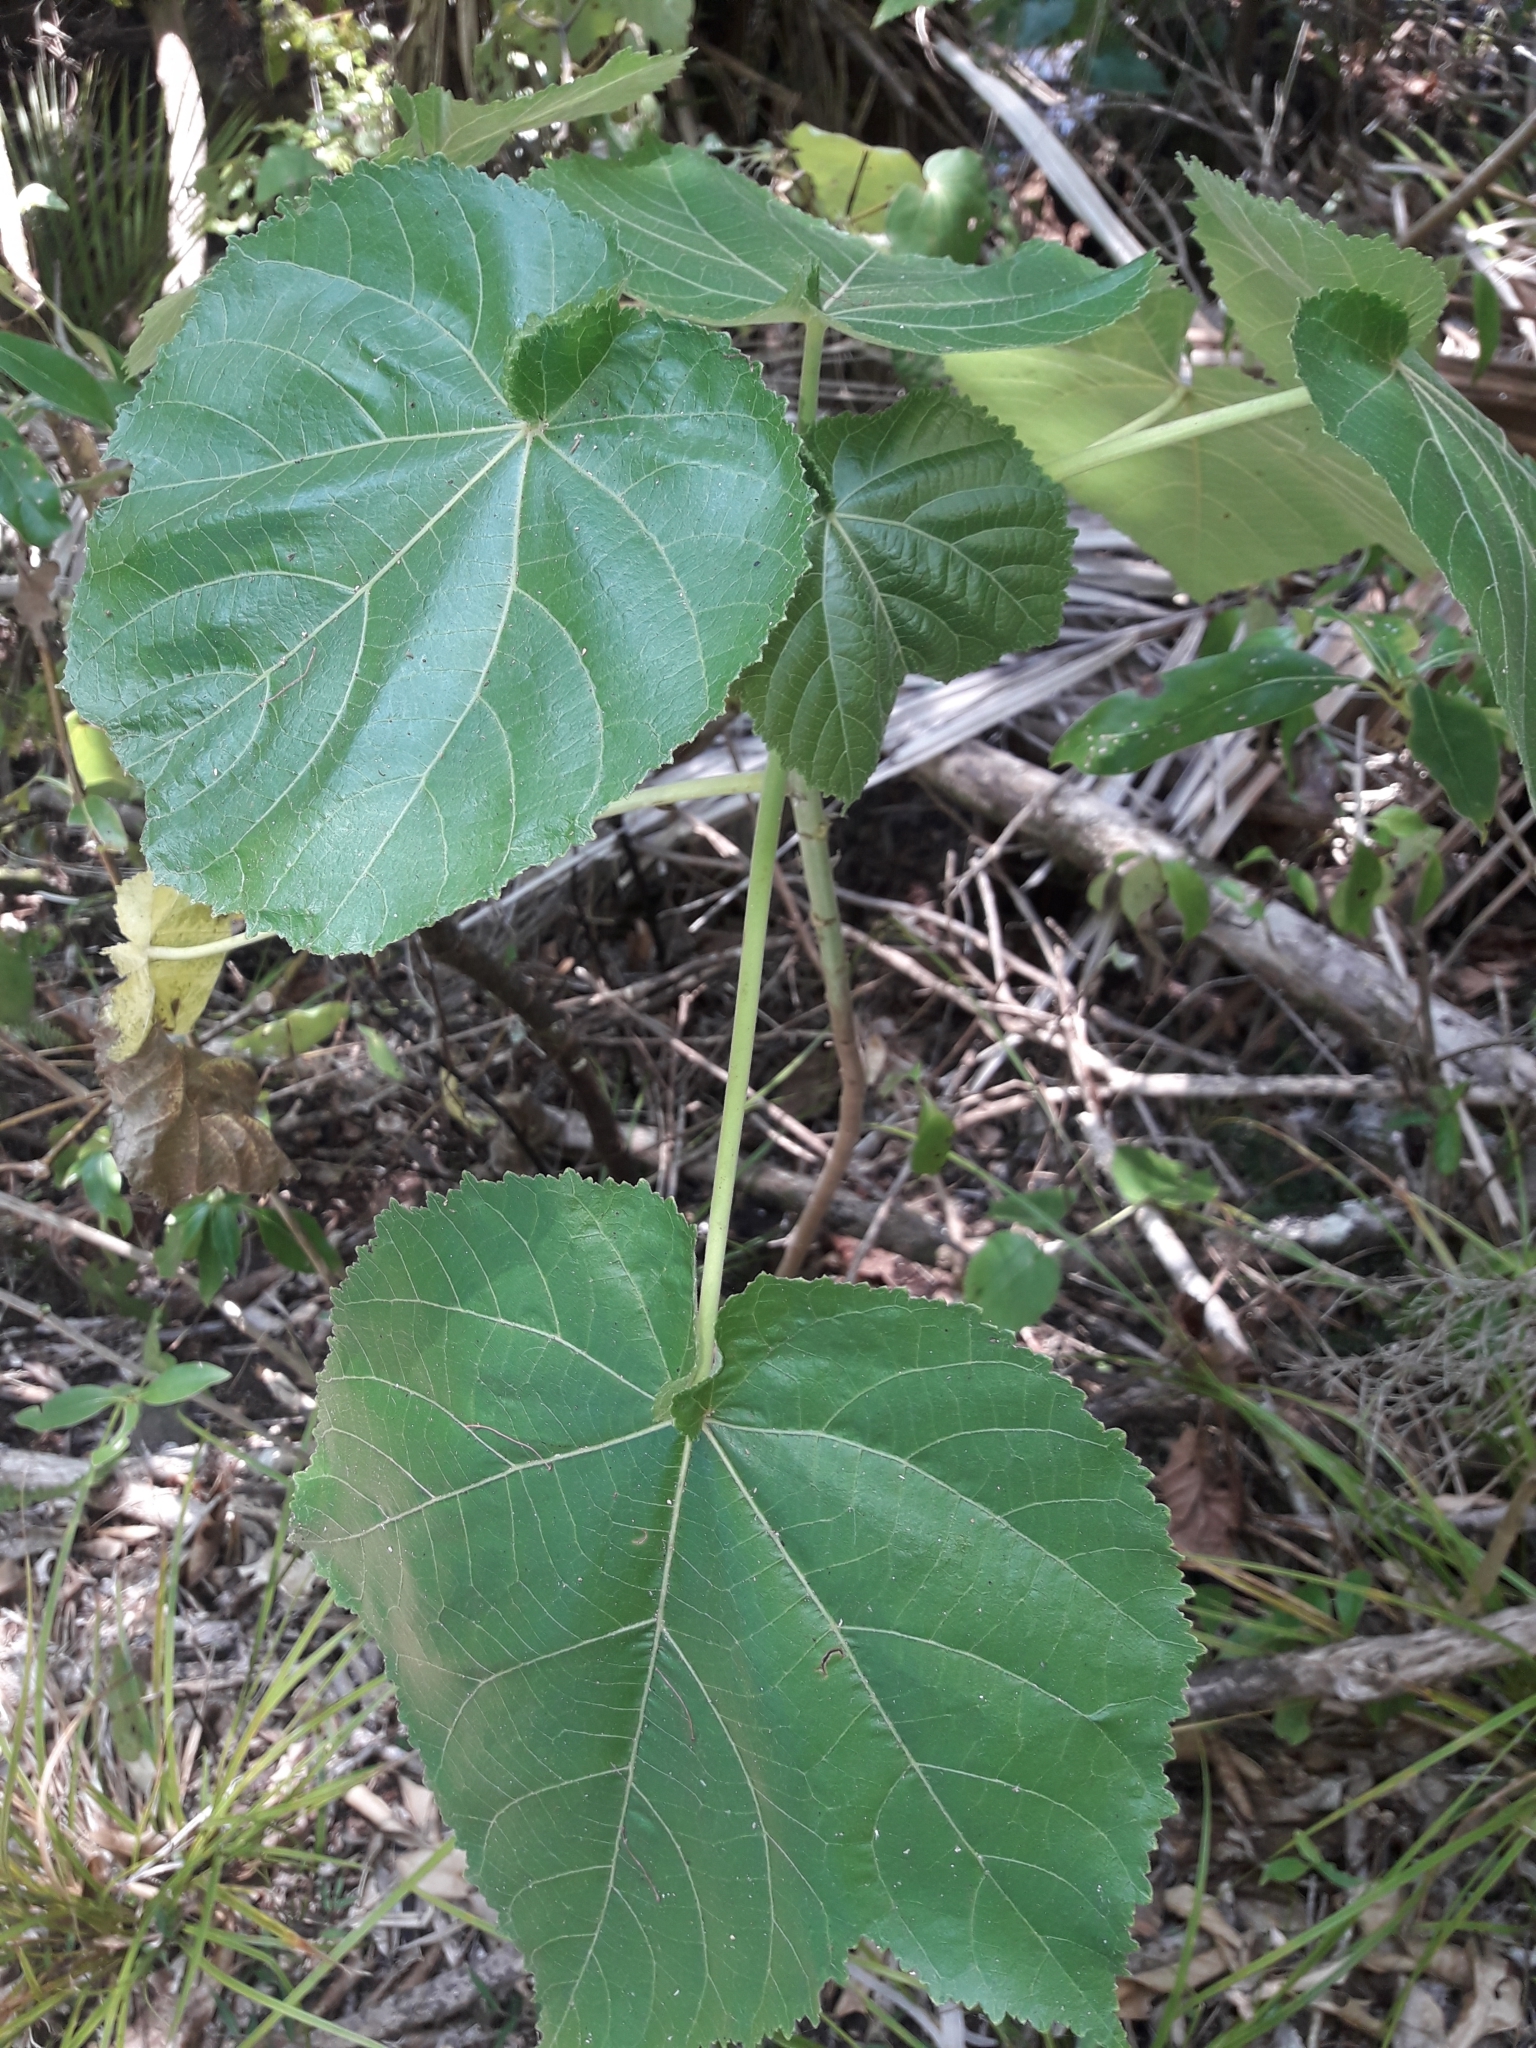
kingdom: Plantae
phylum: Tracheophyta
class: Magnoliopsida
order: Malvales
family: Malvaceae
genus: Entelea
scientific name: Entelea arborescens
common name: New zealand-mulberry
